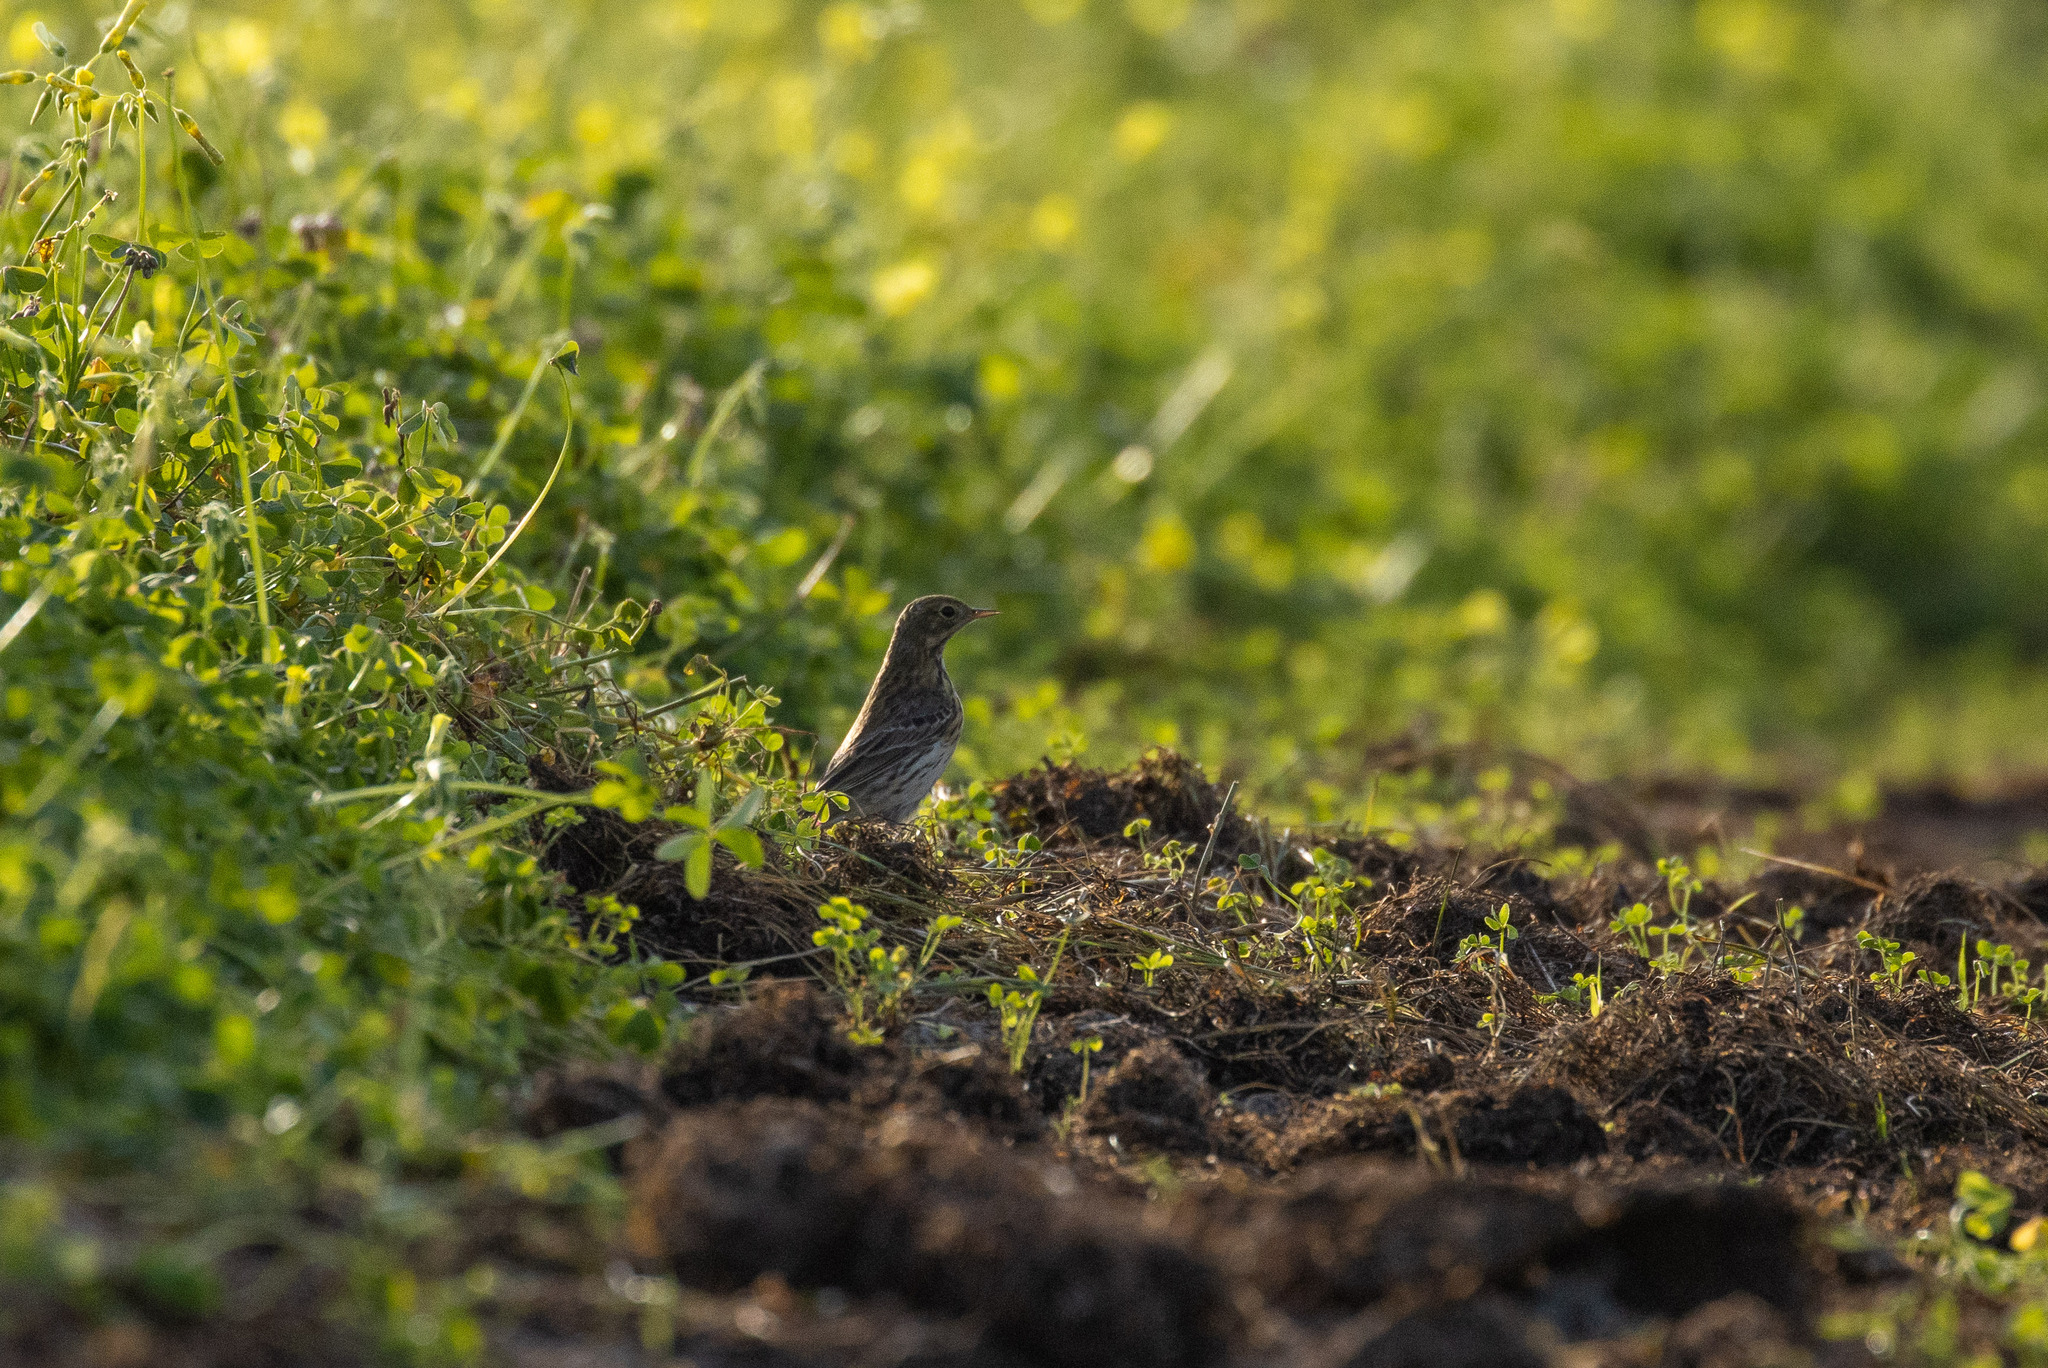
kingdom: Animalia
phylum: Chordata
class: Aves
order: Passeriformes
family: Motacillidae
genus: Anthus
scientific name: Anthus pratensis
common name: Meadow pipit
